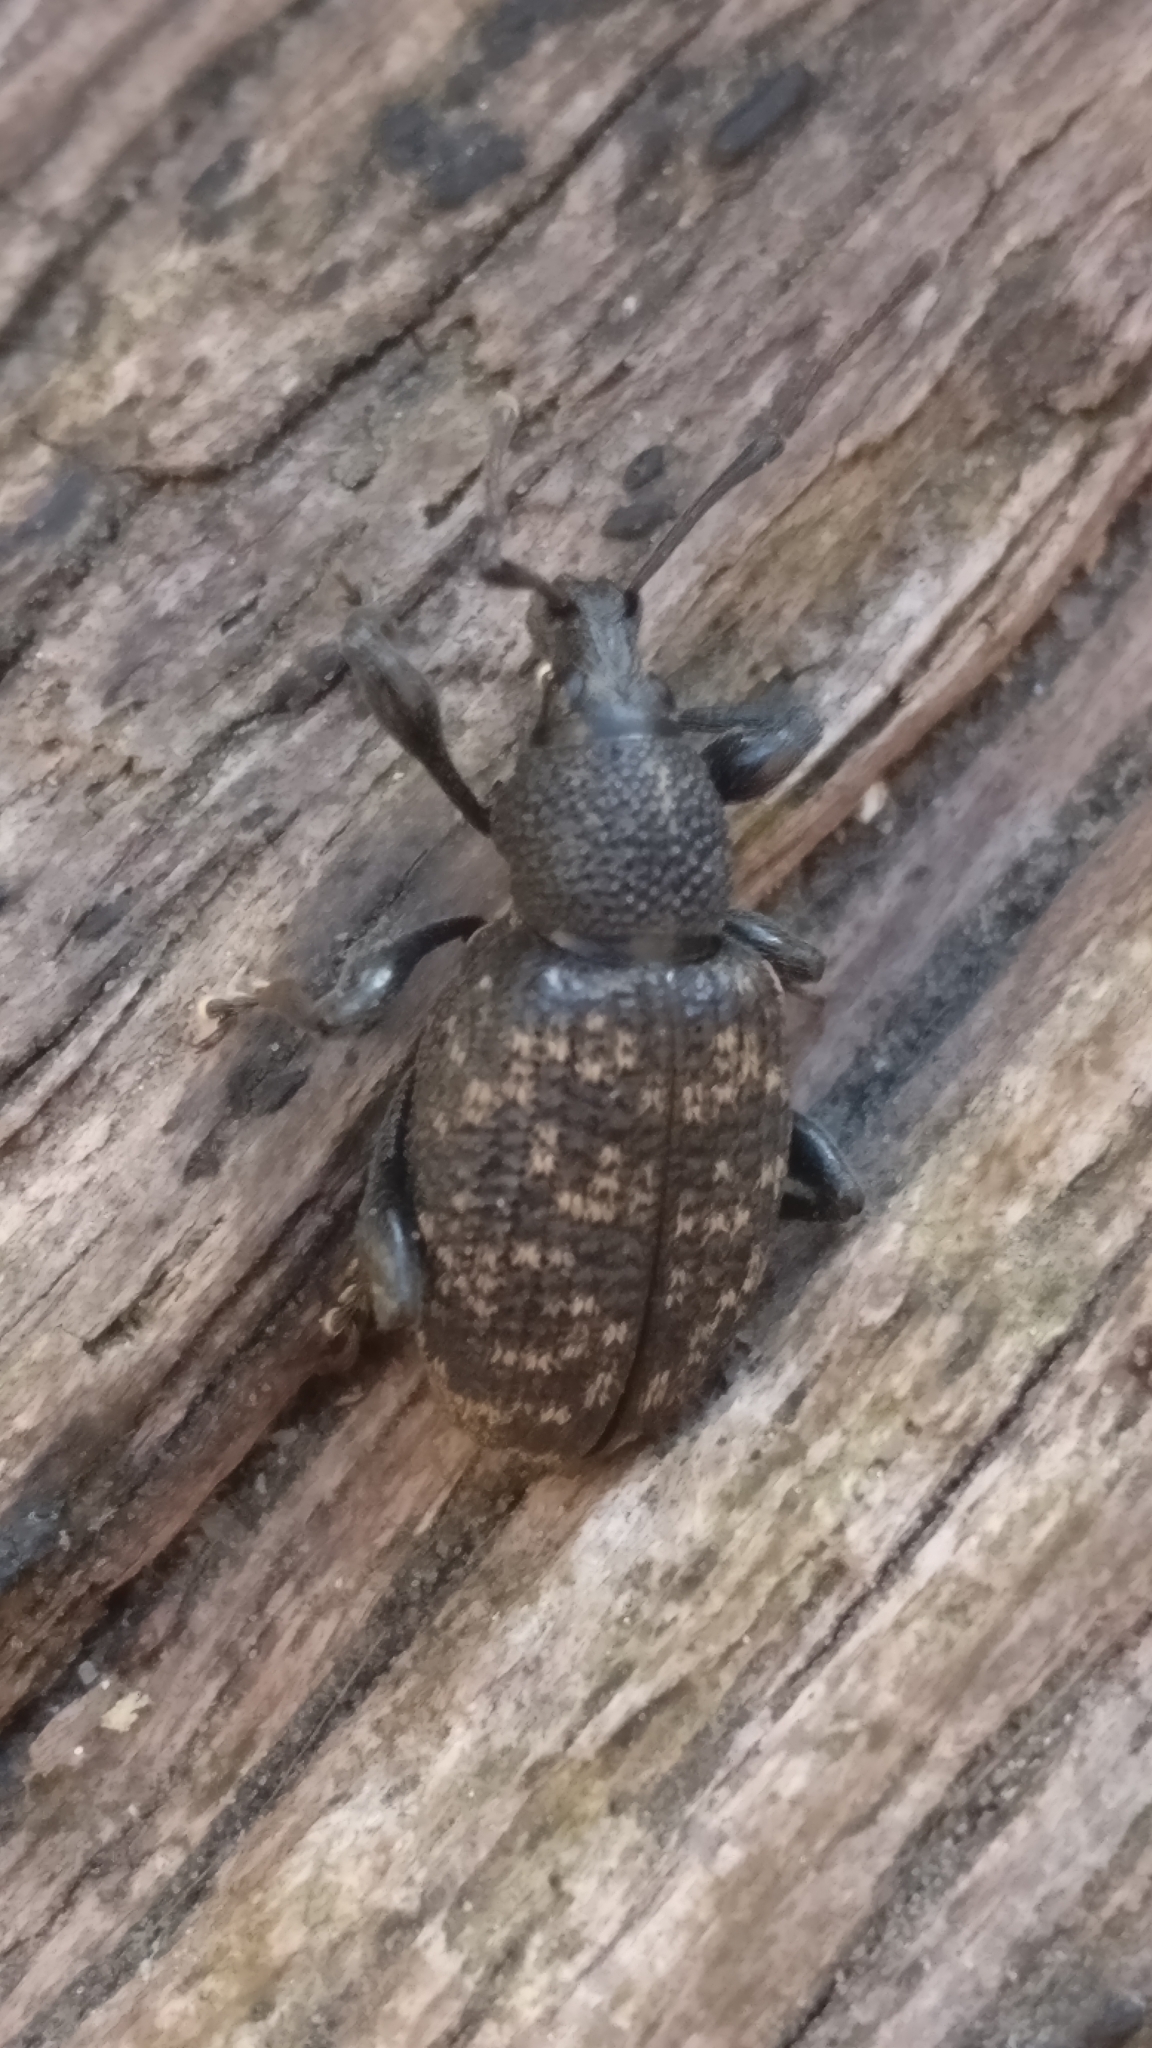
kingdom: Animalia
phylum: Arthropoda
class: Insecta
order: Coleoptera
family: Curculionidae
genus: Otiorhynchus
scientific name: Otiorhynchus sulcatus
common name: Black vine weevil
